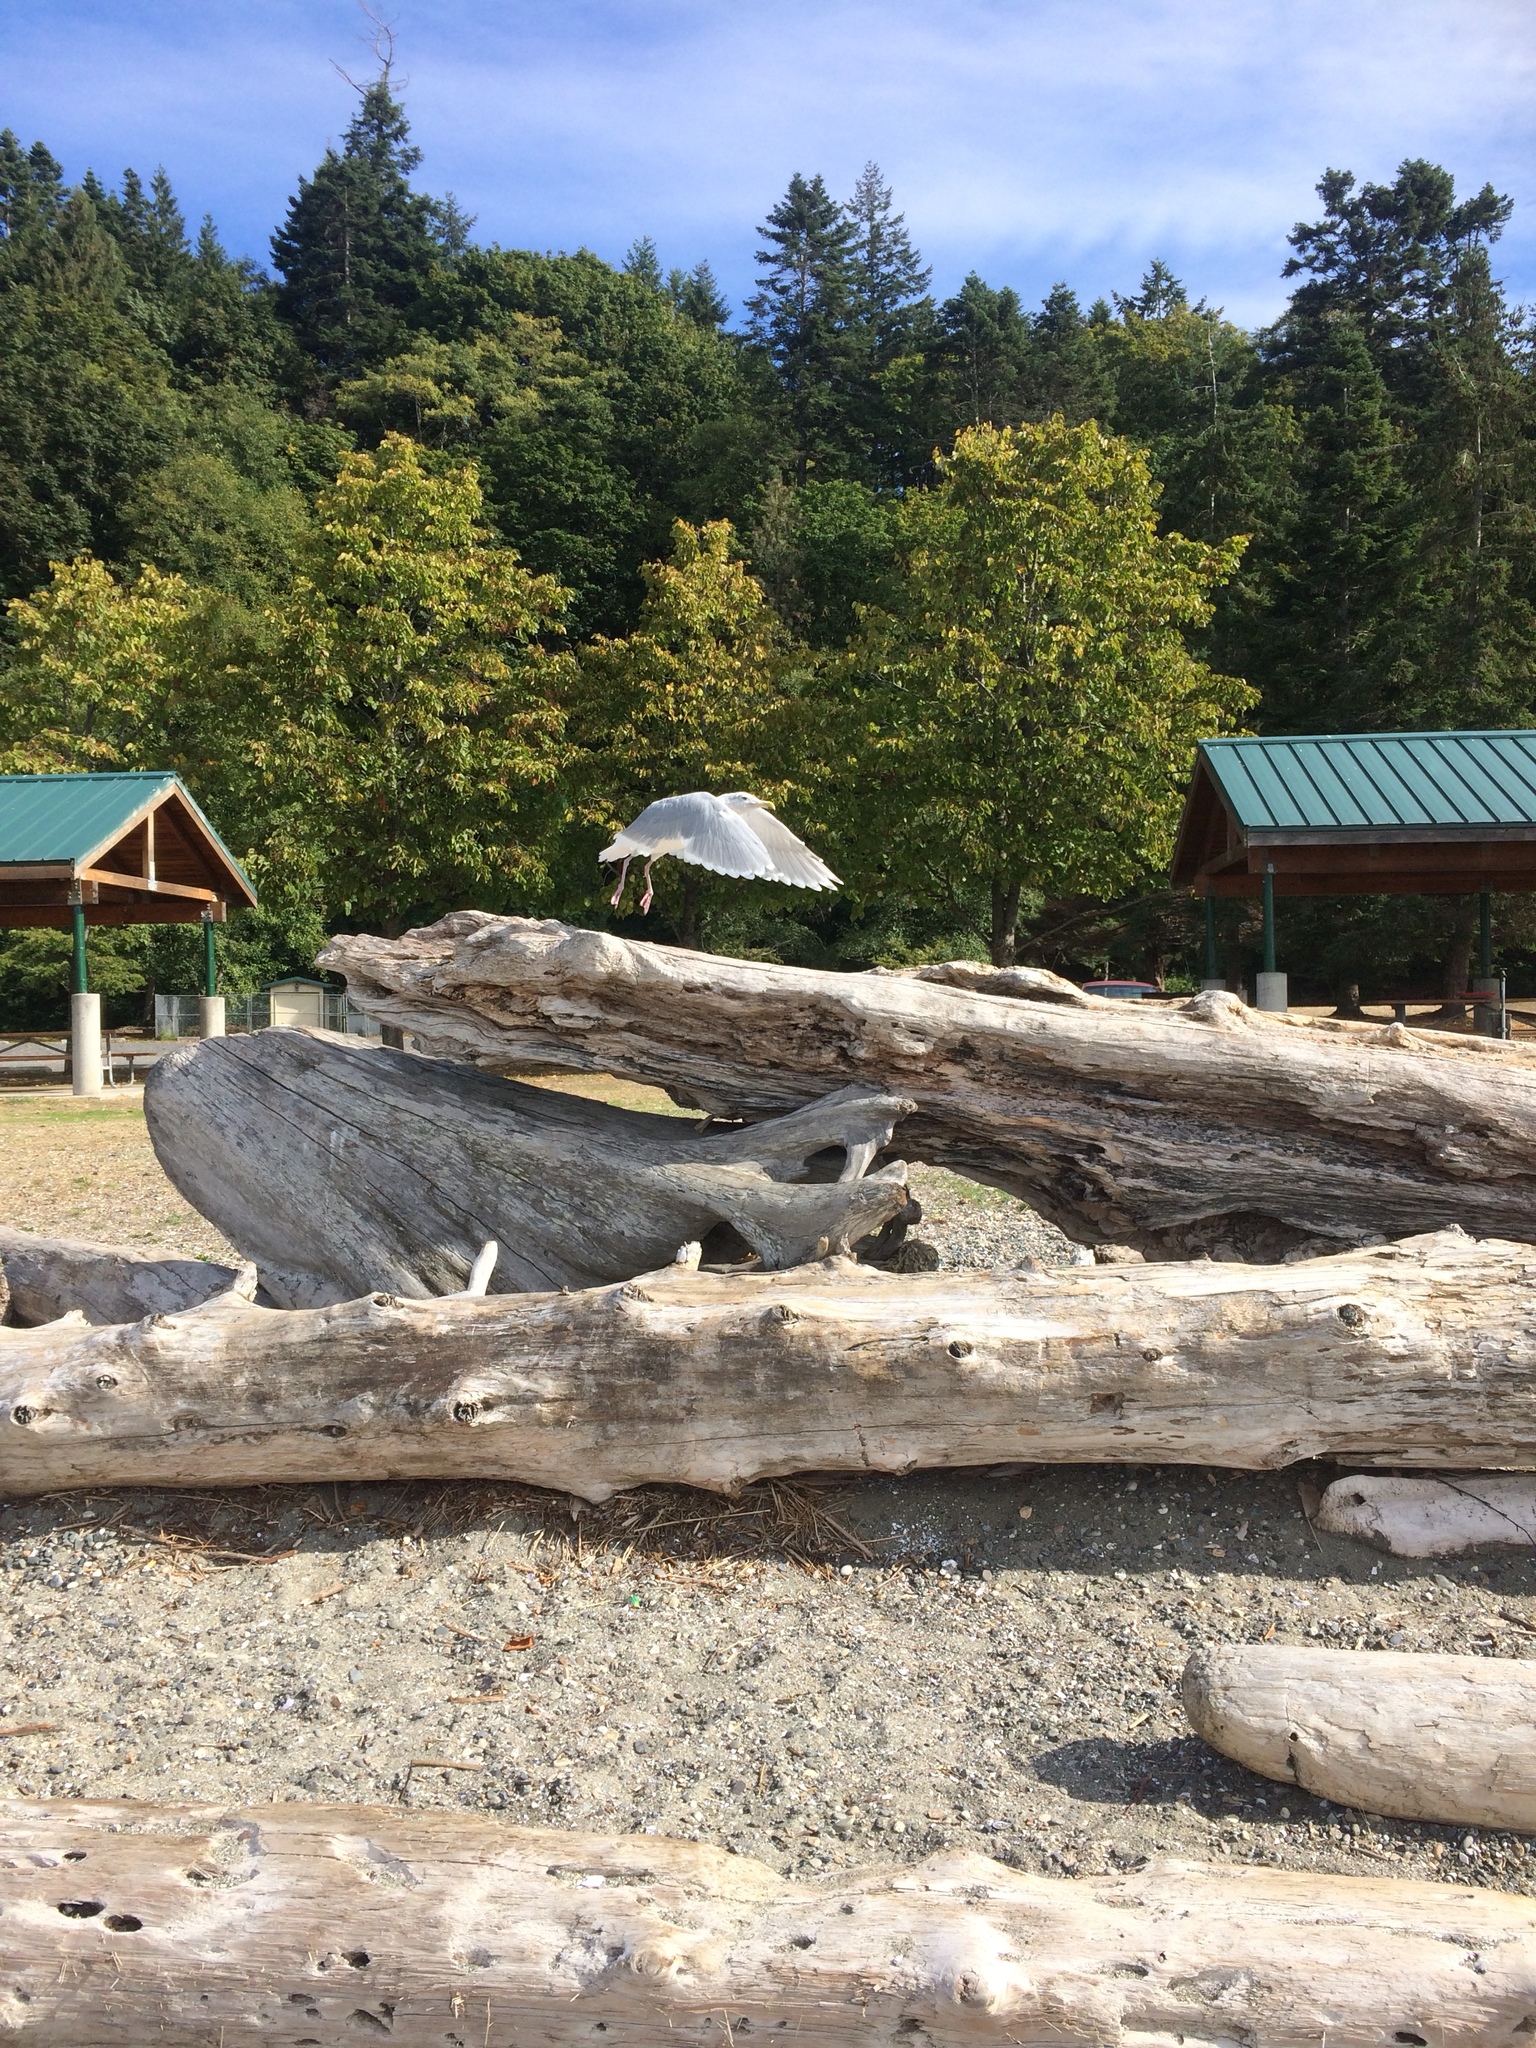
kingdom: Animalia
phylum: Chordata
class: Aves
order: Charadriiformes
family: Laridae
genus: Larus
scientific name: Larus glaucescens
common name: Glaucous-winged gull
